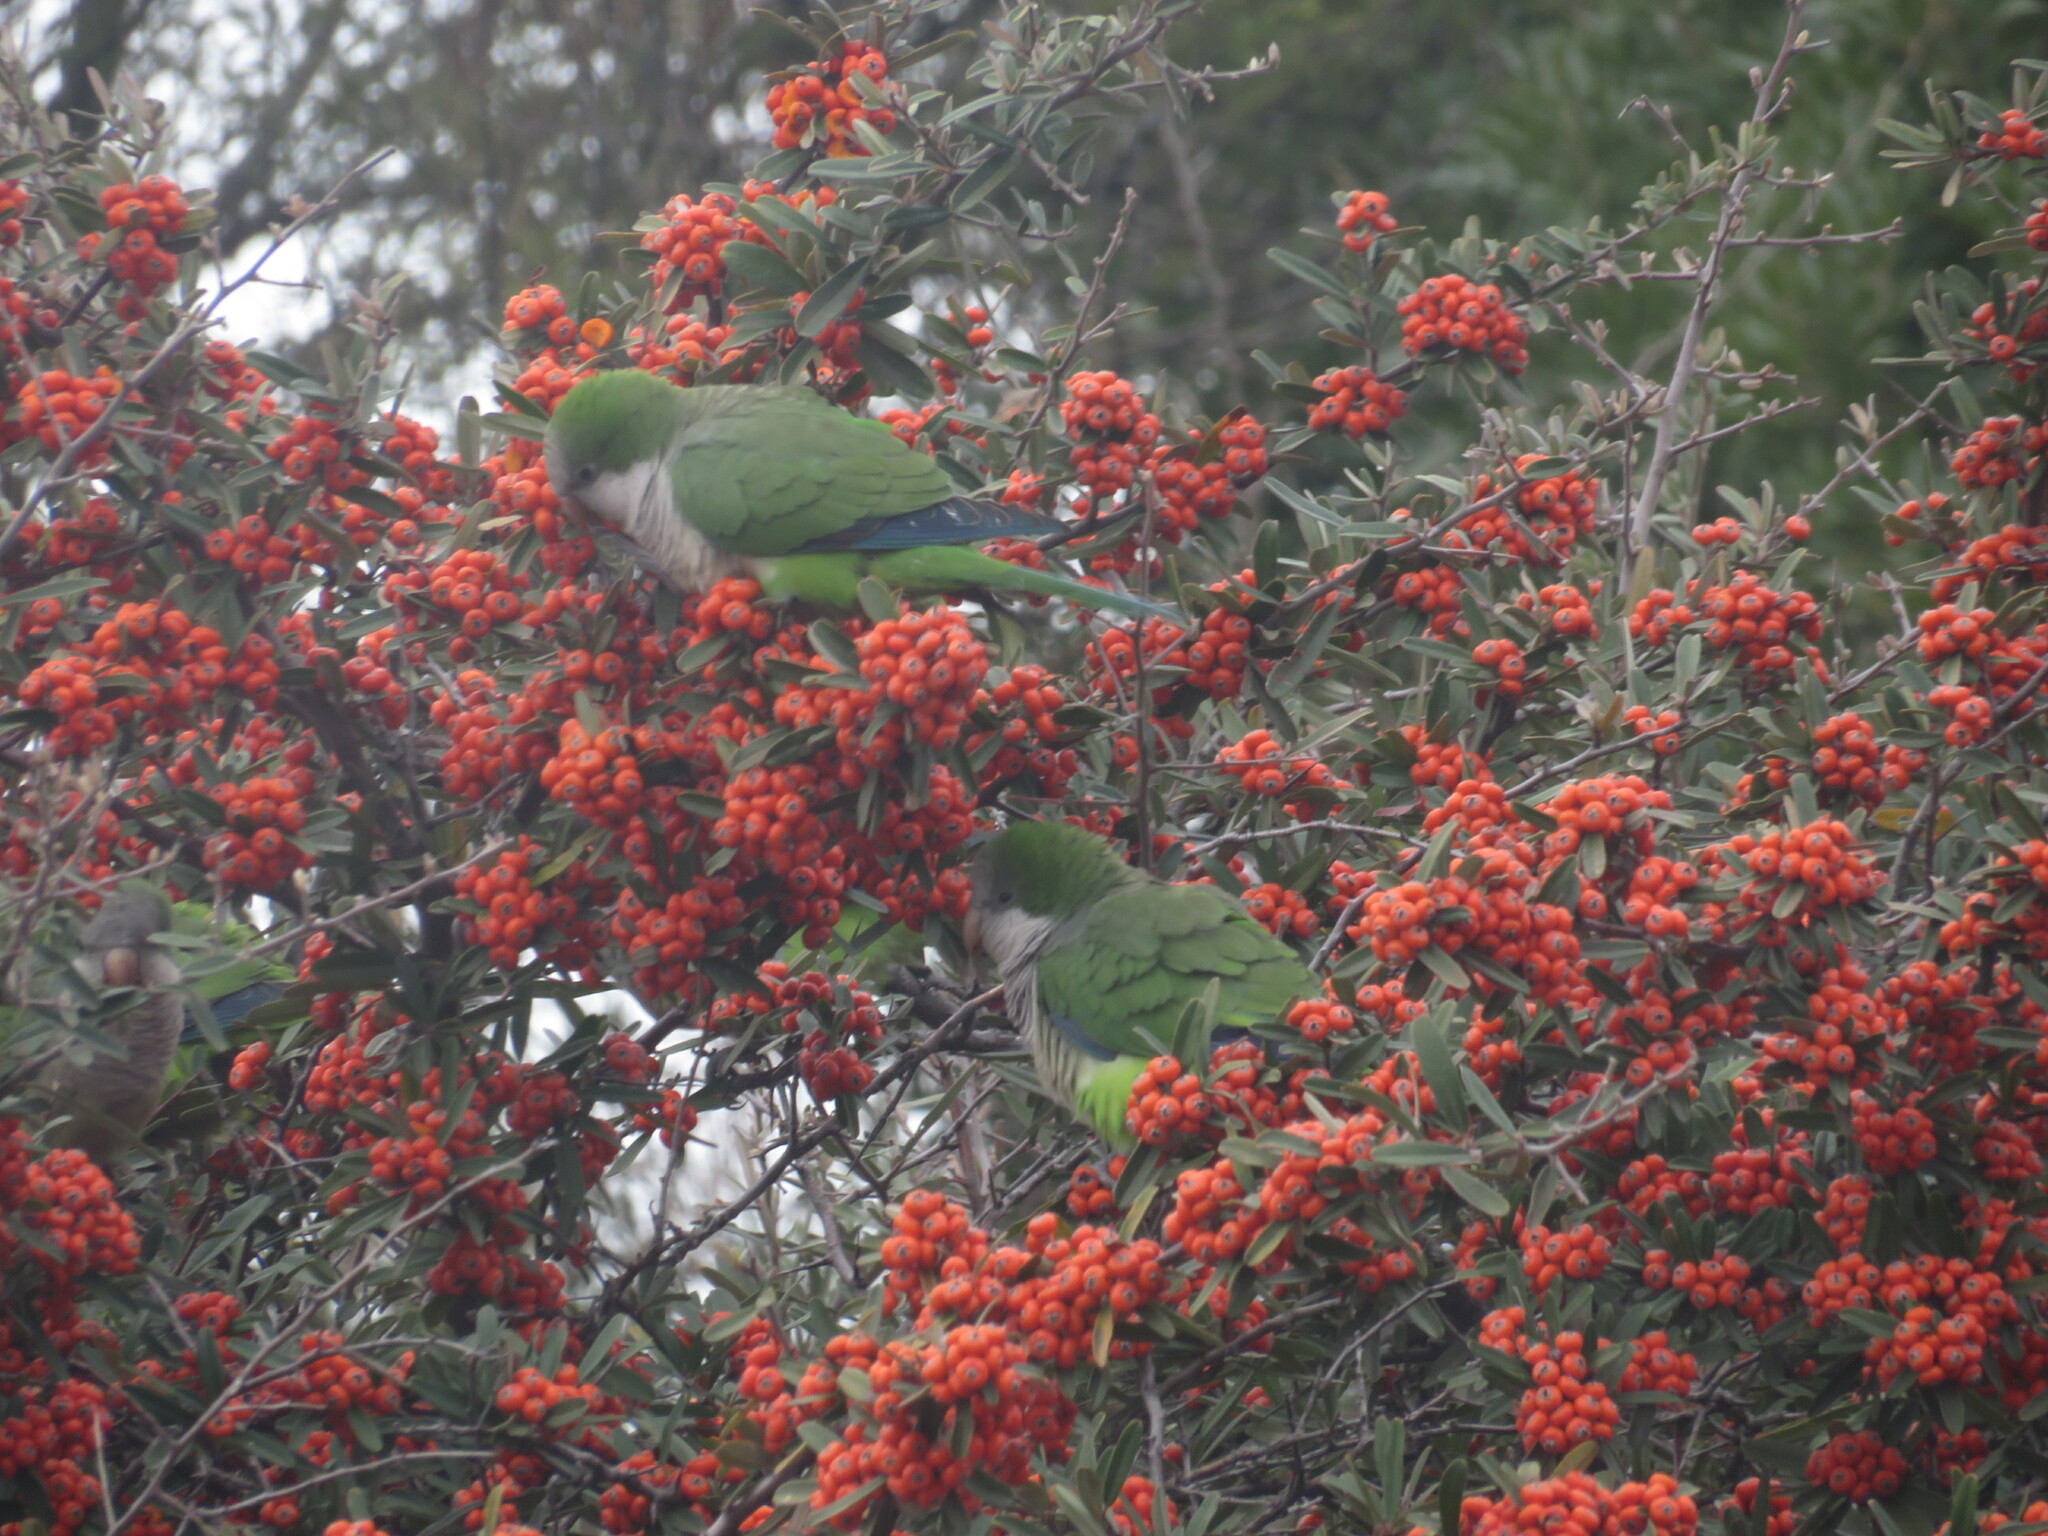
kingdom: Animalia
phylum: Chordata
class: Aves
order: Psittaciformes
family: Psittacidae
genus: Myiopsitta
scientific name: Myiopsitta monachus
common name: Monk parakeet
